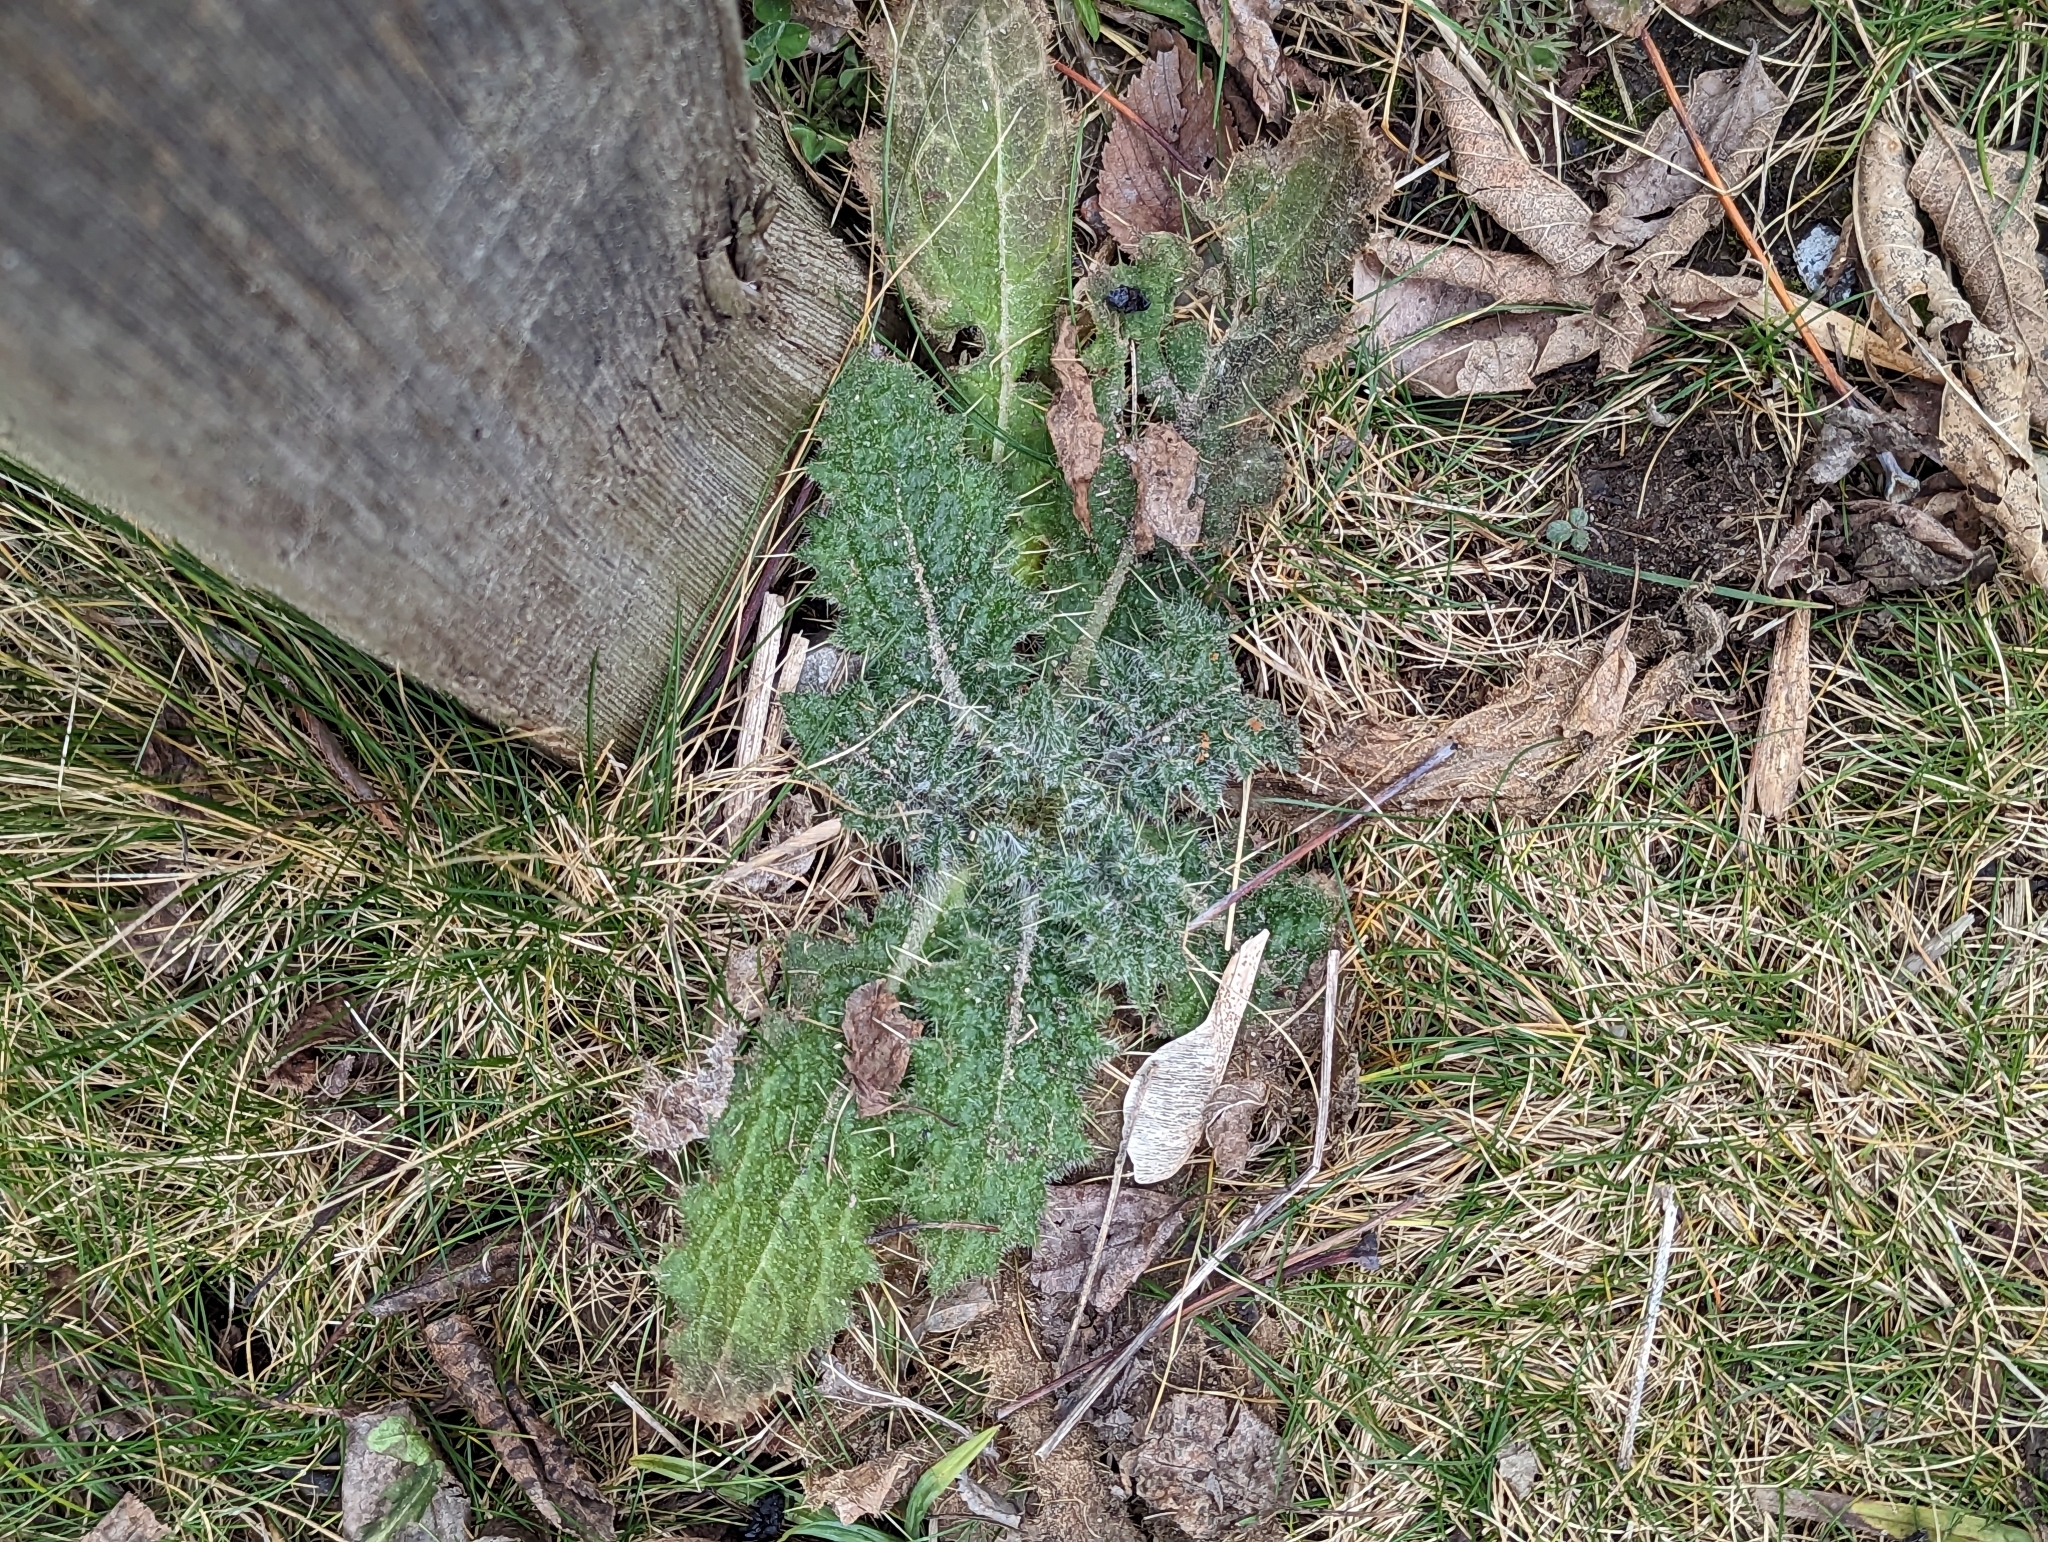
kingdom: Plantae
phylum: Tracheophyta
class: Magnoliopsida
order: Asterales
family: Asteraceae
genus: Cirsium
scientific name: Cirsium vulgare
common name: Bull thistle
